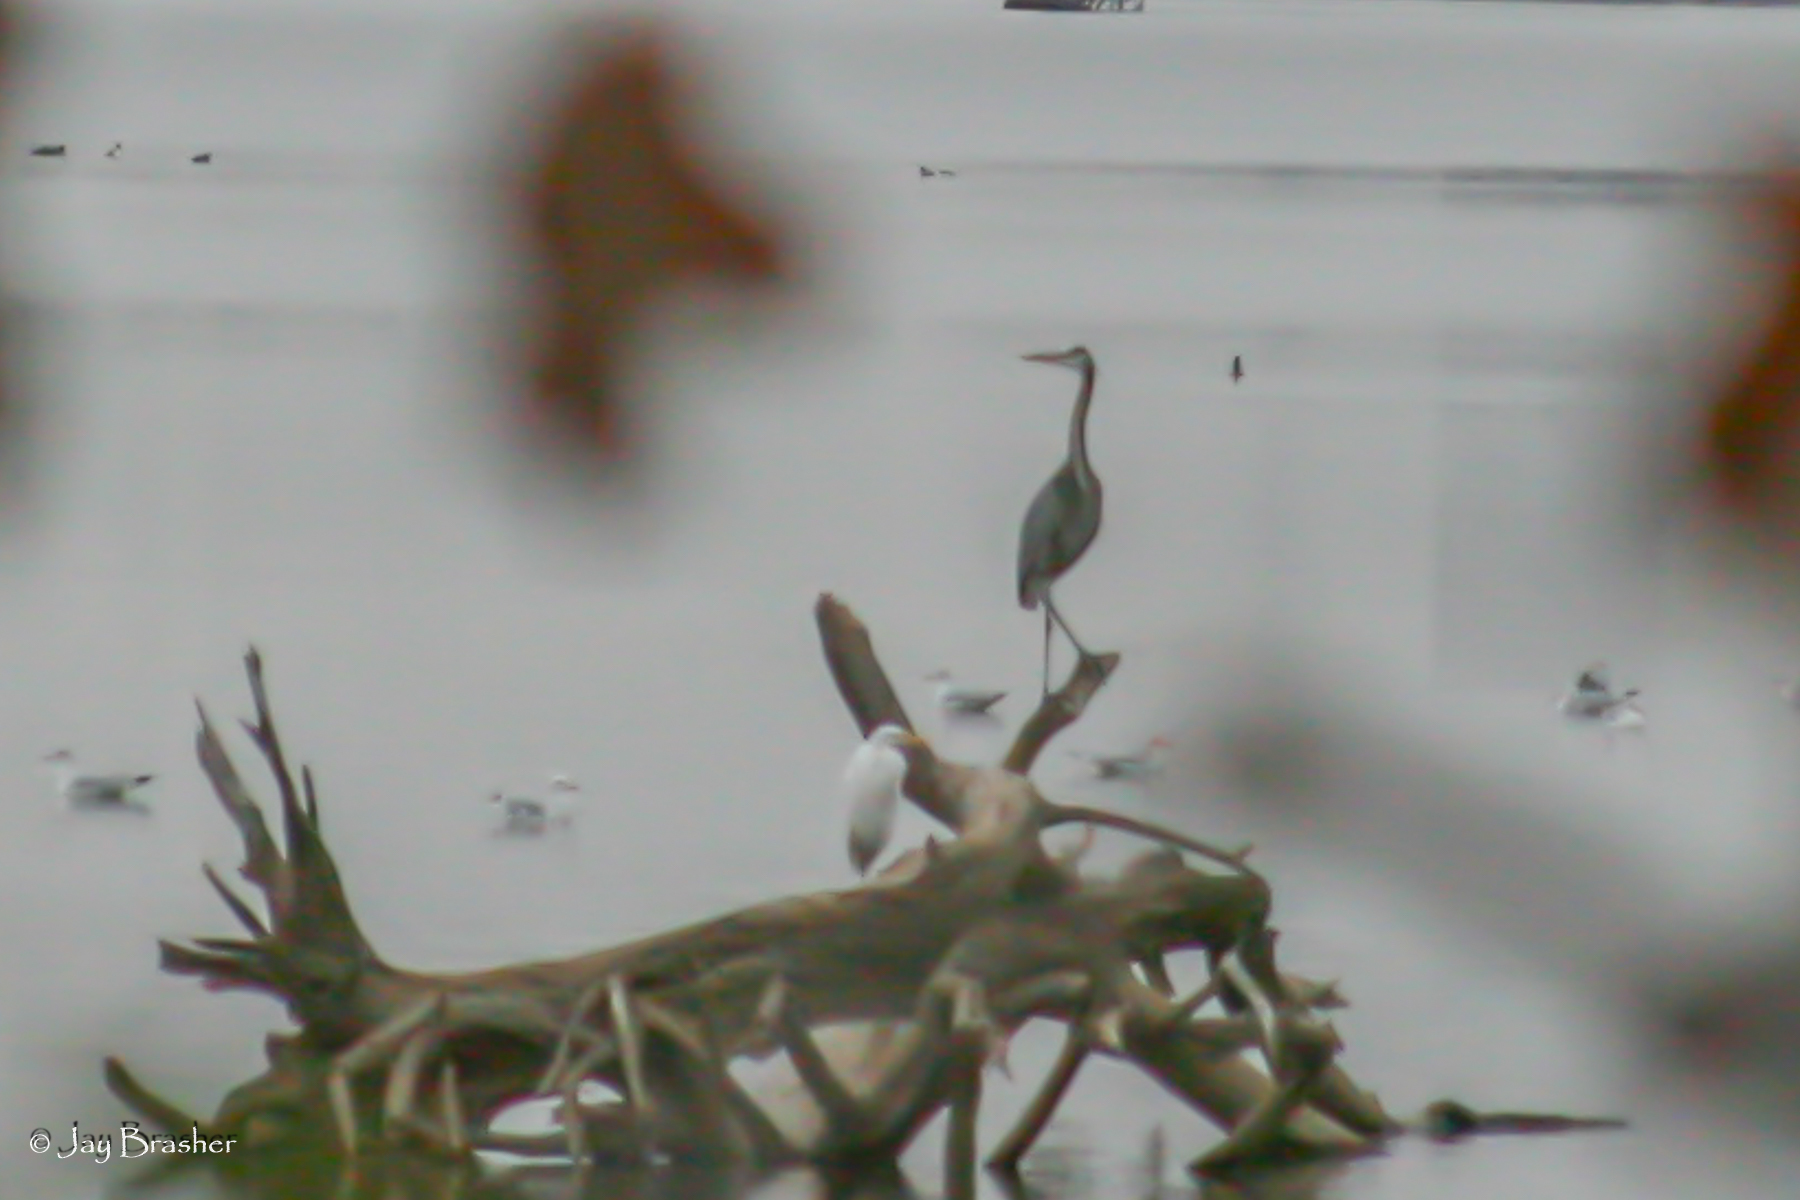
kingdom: Animalia
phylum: Chordata
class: Aves
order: Pelecaniformes
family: Ardeidae
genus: Ardea
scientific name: Ardea herodias
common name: Great blue heron
